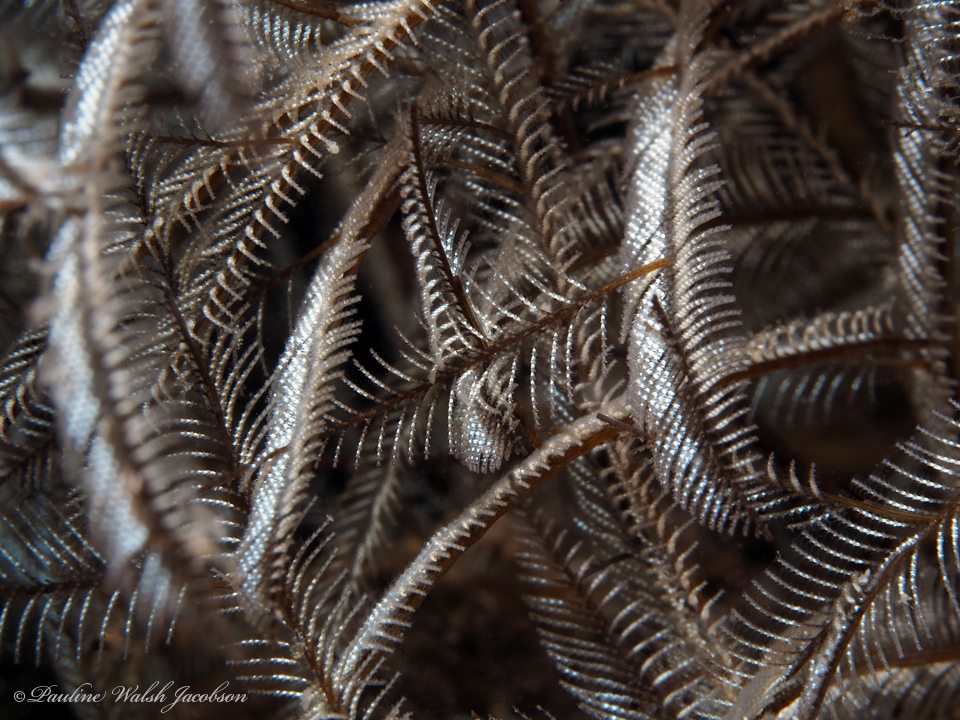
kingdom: Animalia
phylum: Cnidaria
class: Hydrozoa
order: Leptothecata
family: Aglaopheniidae
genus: Macrorhynchia
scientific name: Macrorhynchia philippina
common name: Stinging hydroid
